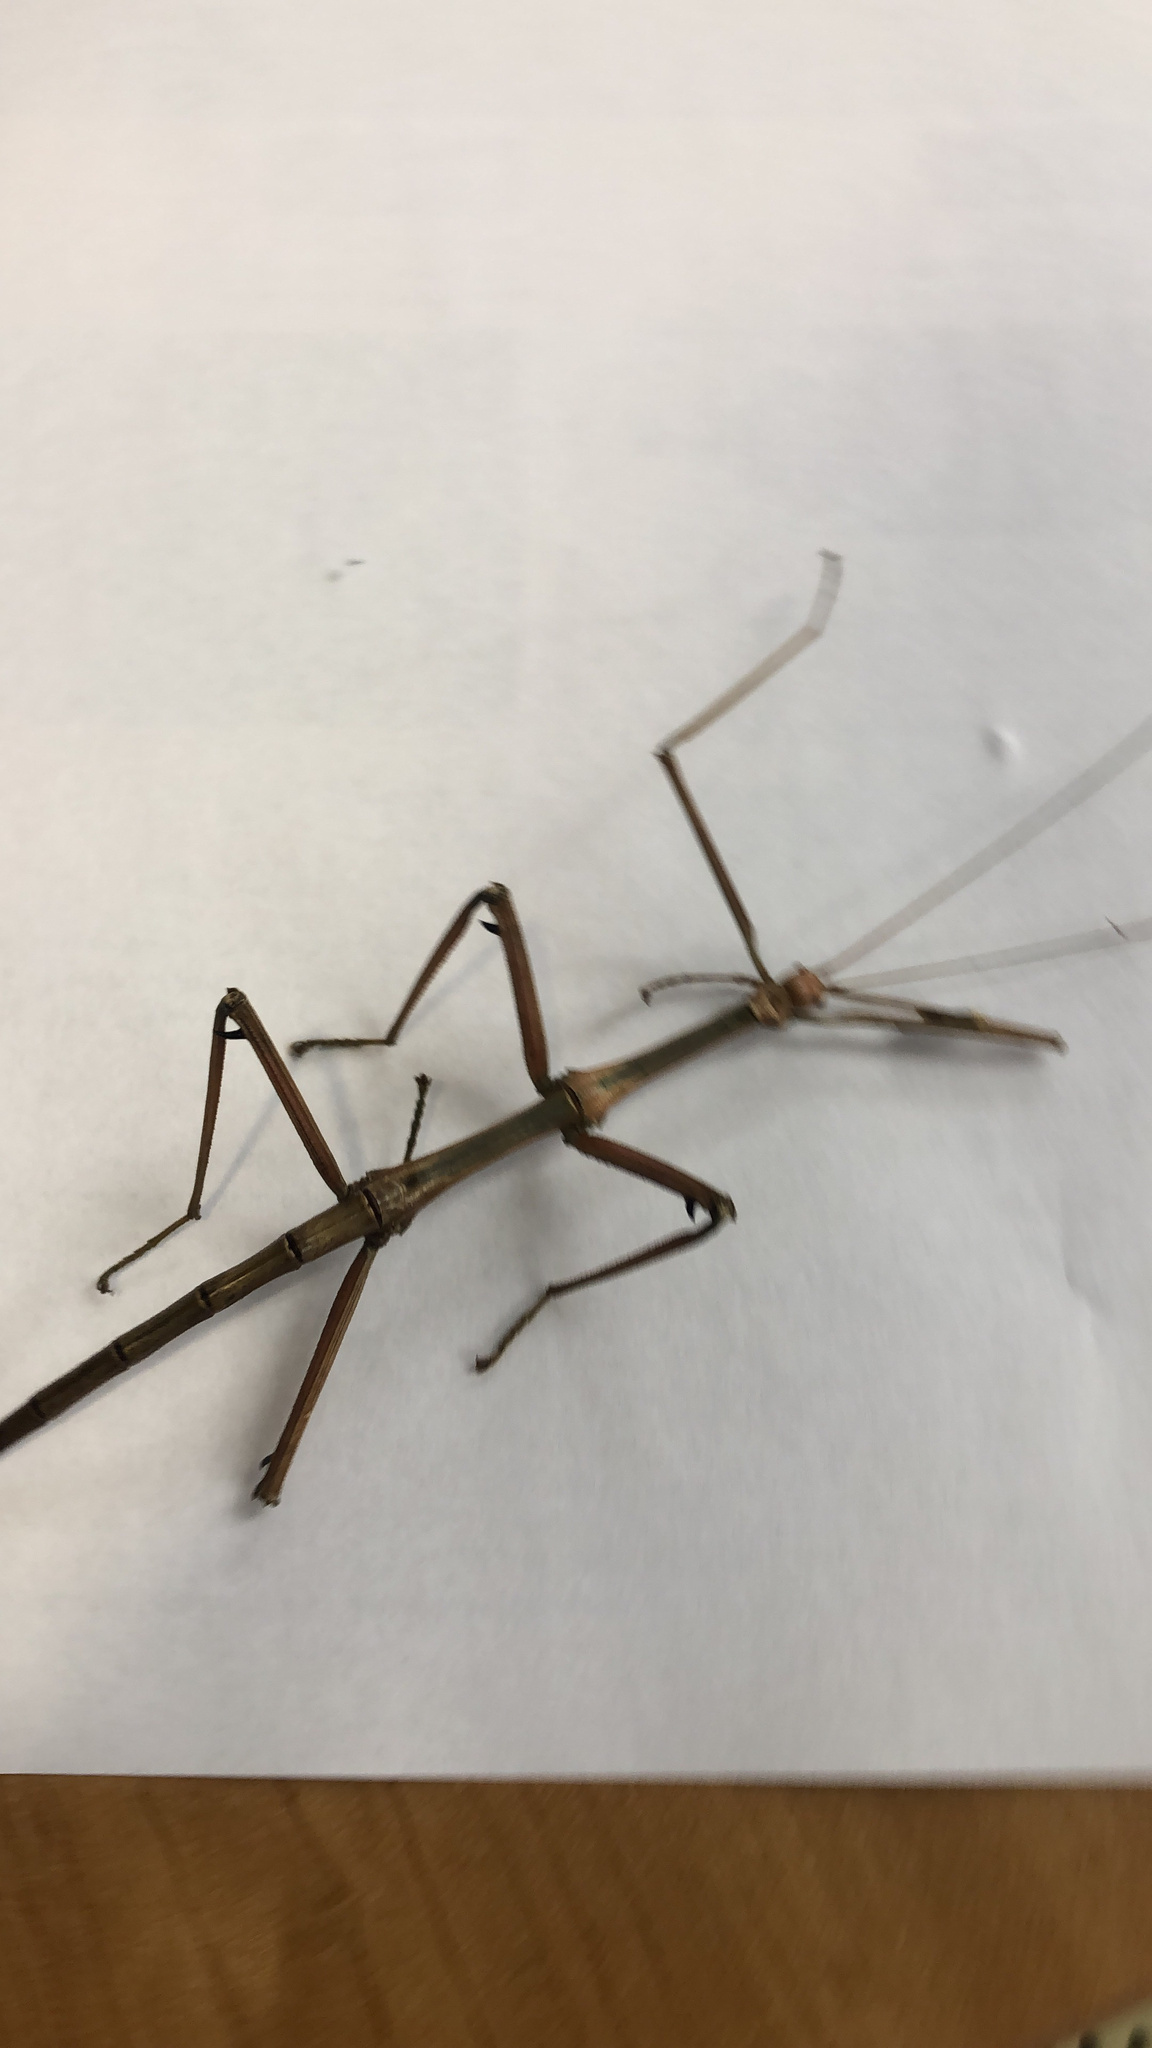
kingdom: Animalia
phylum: Arthropoda
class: Insecta
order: Phasmida
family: Diapheromeridae
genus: Megaphasma
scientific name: Megaphasma denticrus
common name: Giant walkingstick
